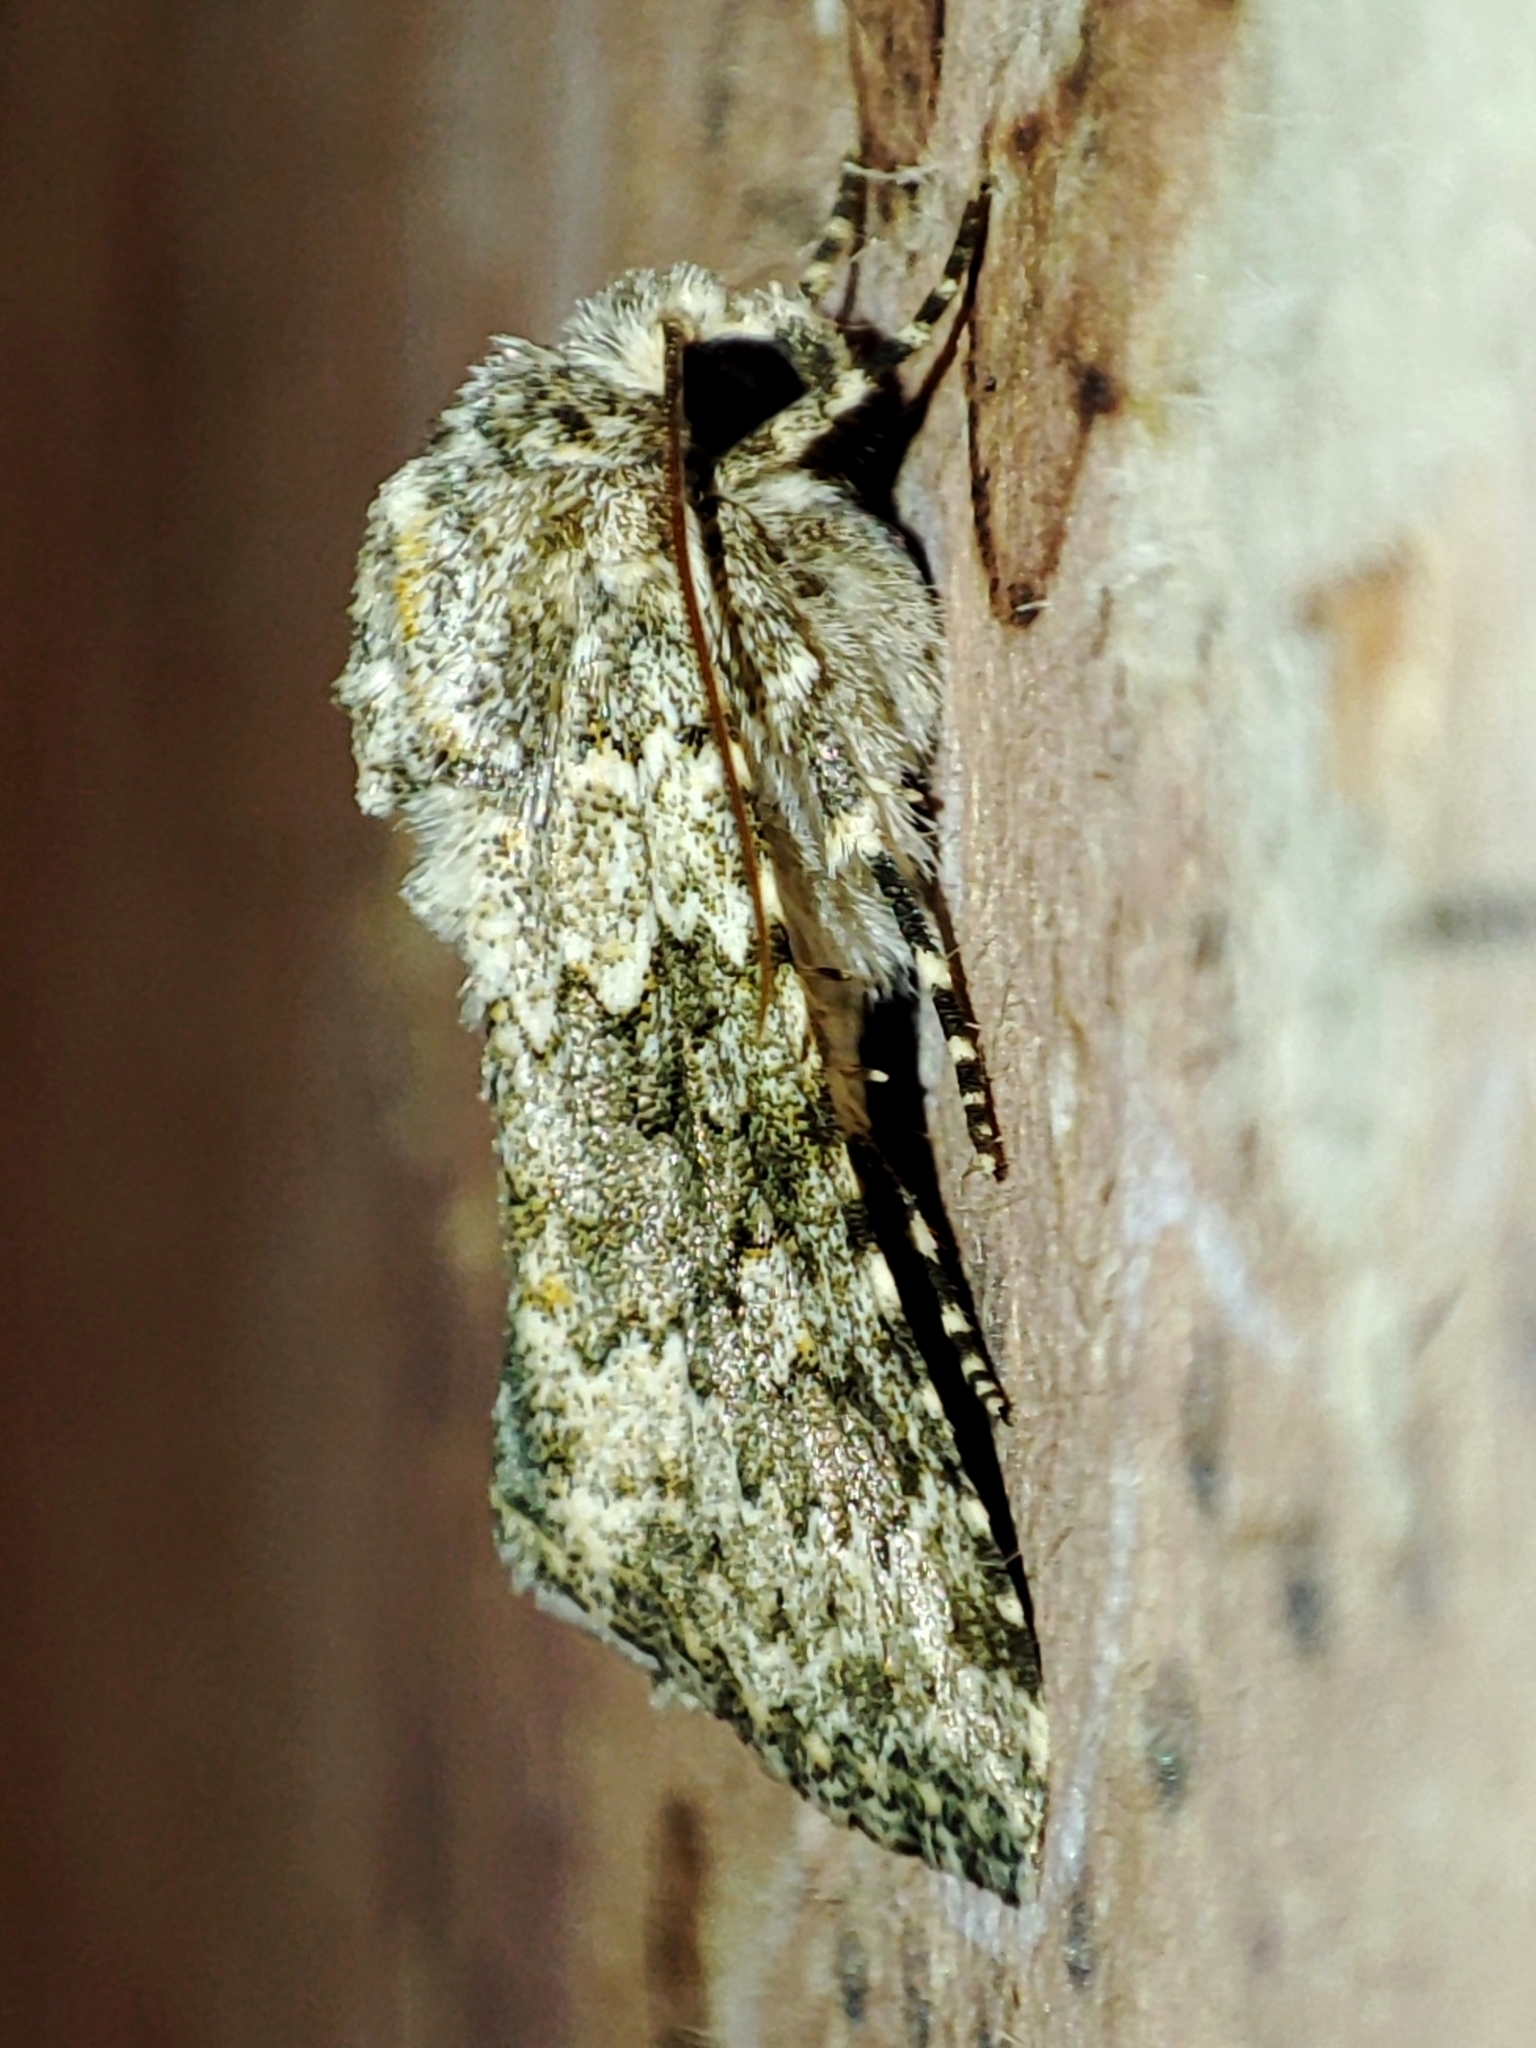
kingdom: Animalia
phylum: Arthropoda
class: Insecta
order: Lepidoptera
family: Noctuidae
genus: Hecatera
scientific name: Hecatera dysodea
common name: Small ranunculus
